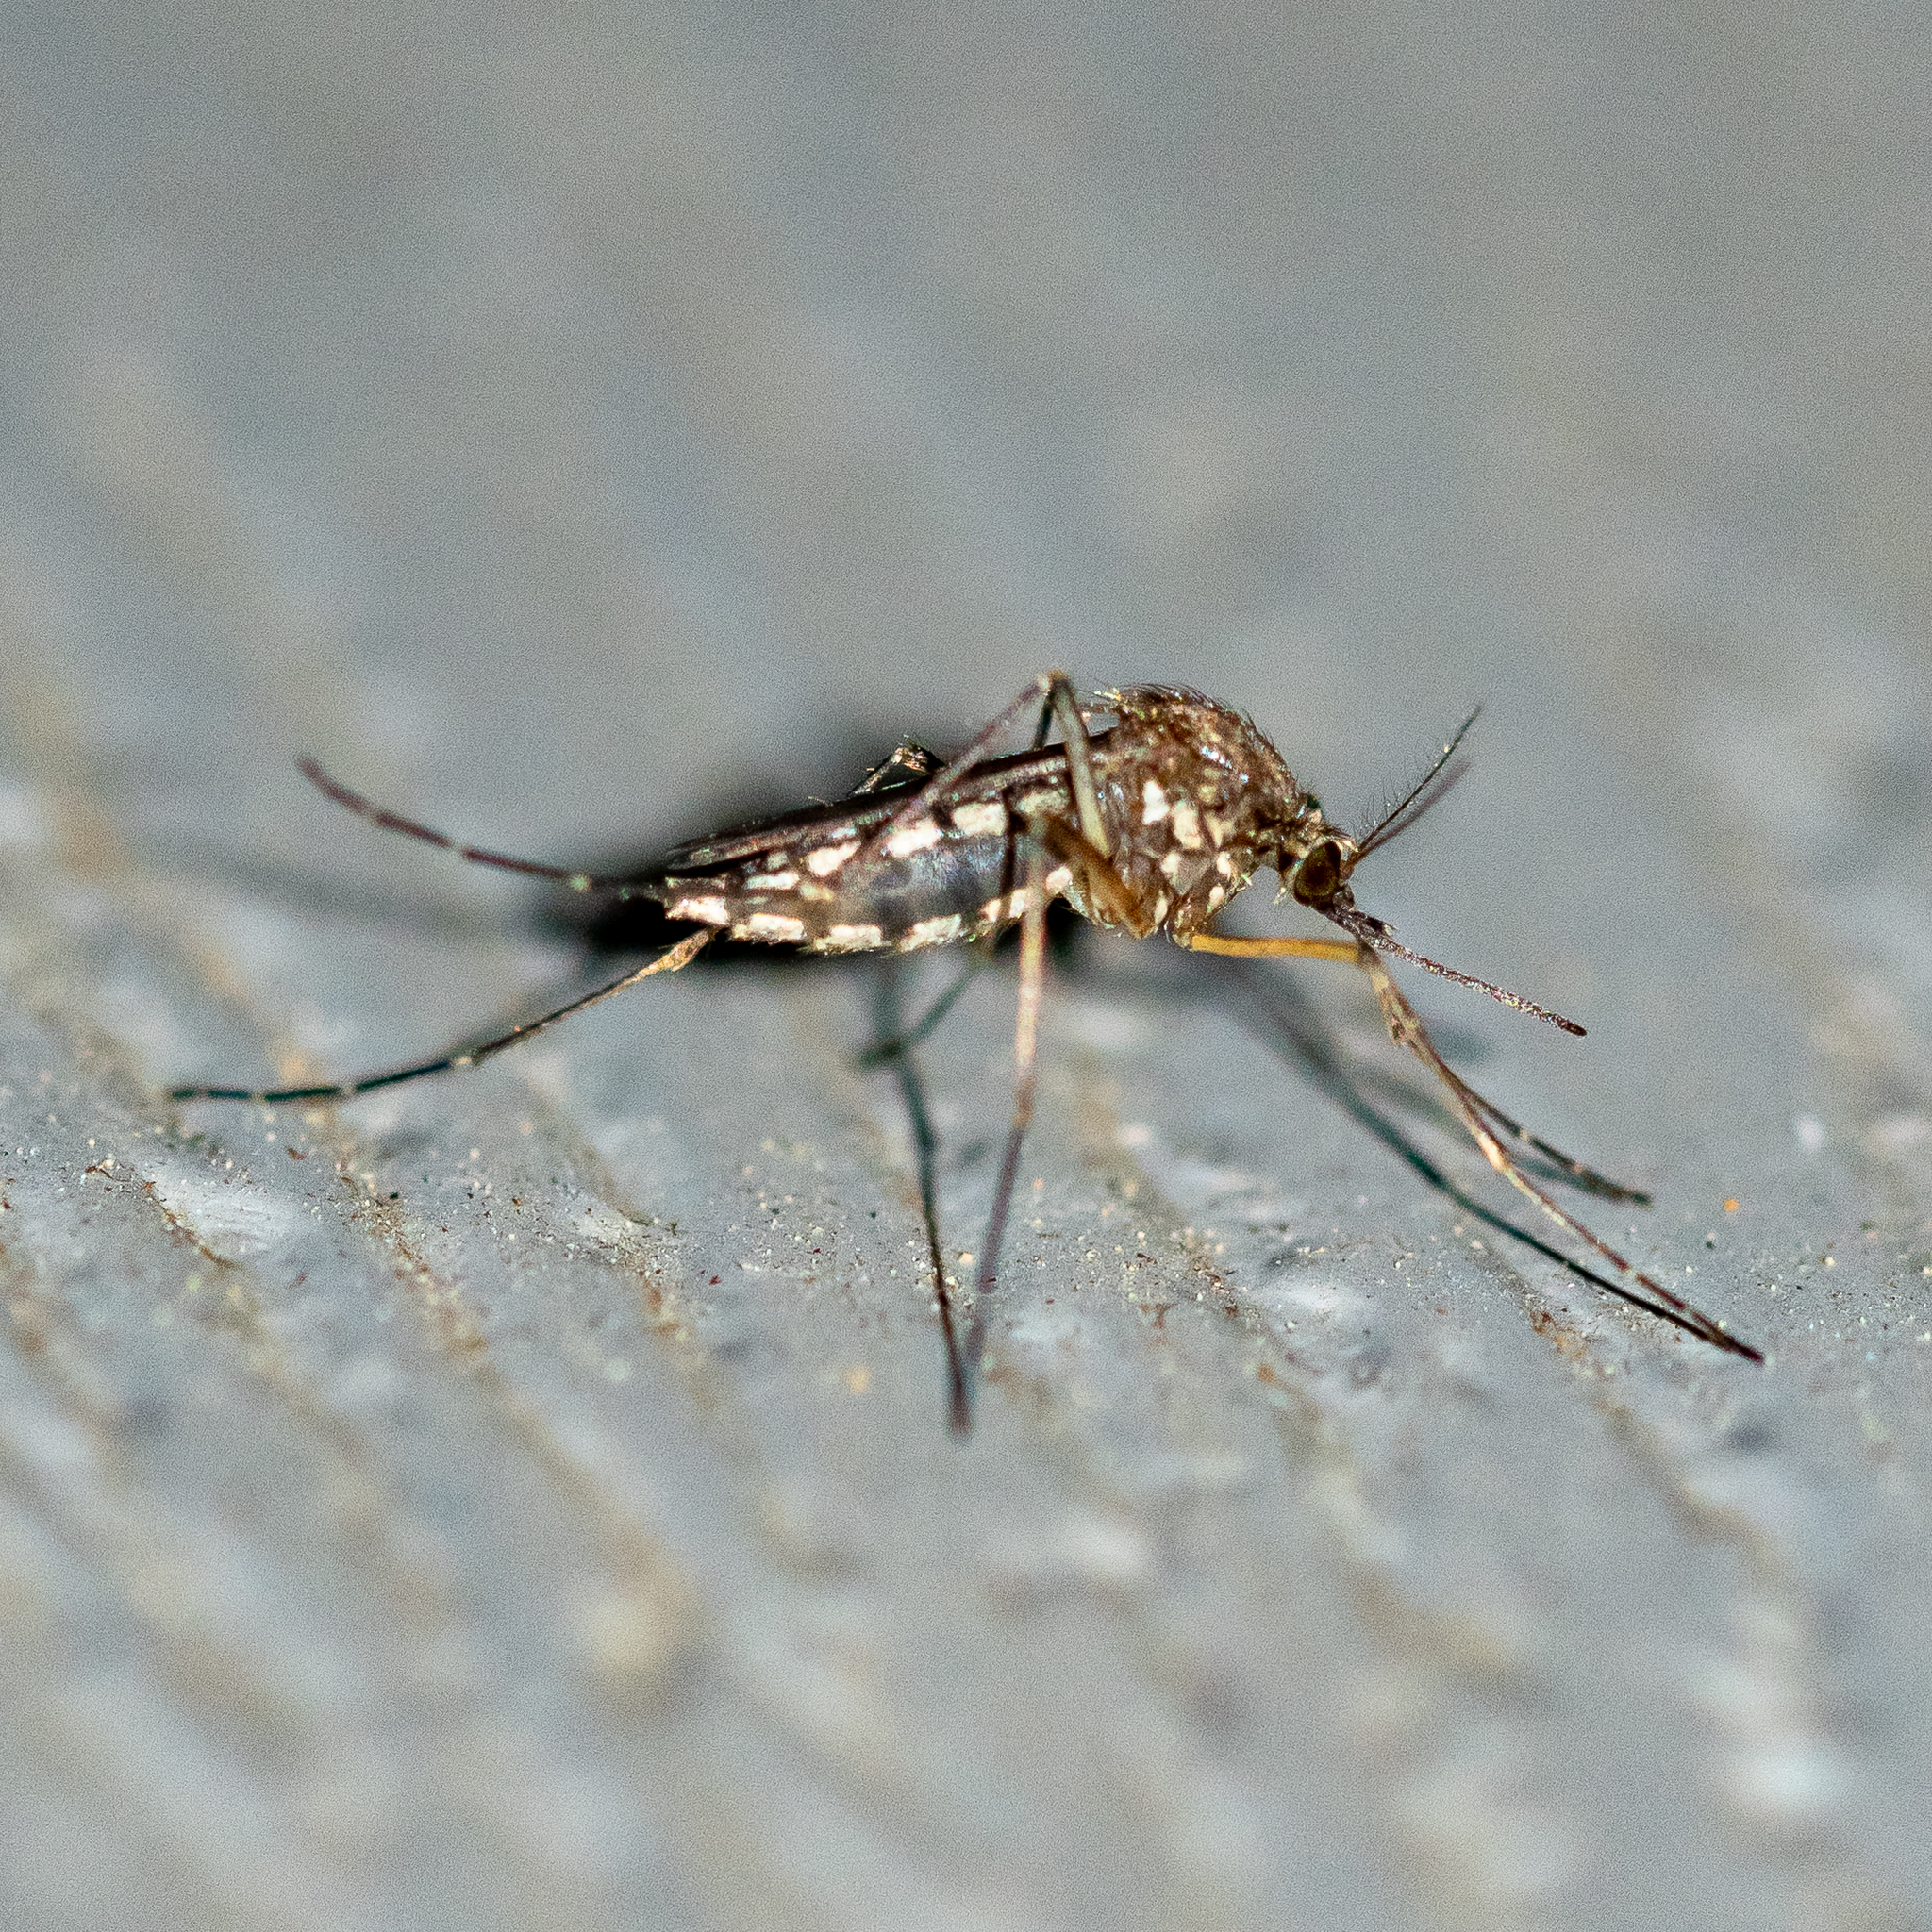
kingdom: Animalia
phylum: Arthropoda
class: Insecta
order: Diptera
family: Culicidae
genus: Aedes
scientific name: Aedes vexans
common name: Inland floodwater mosquito
